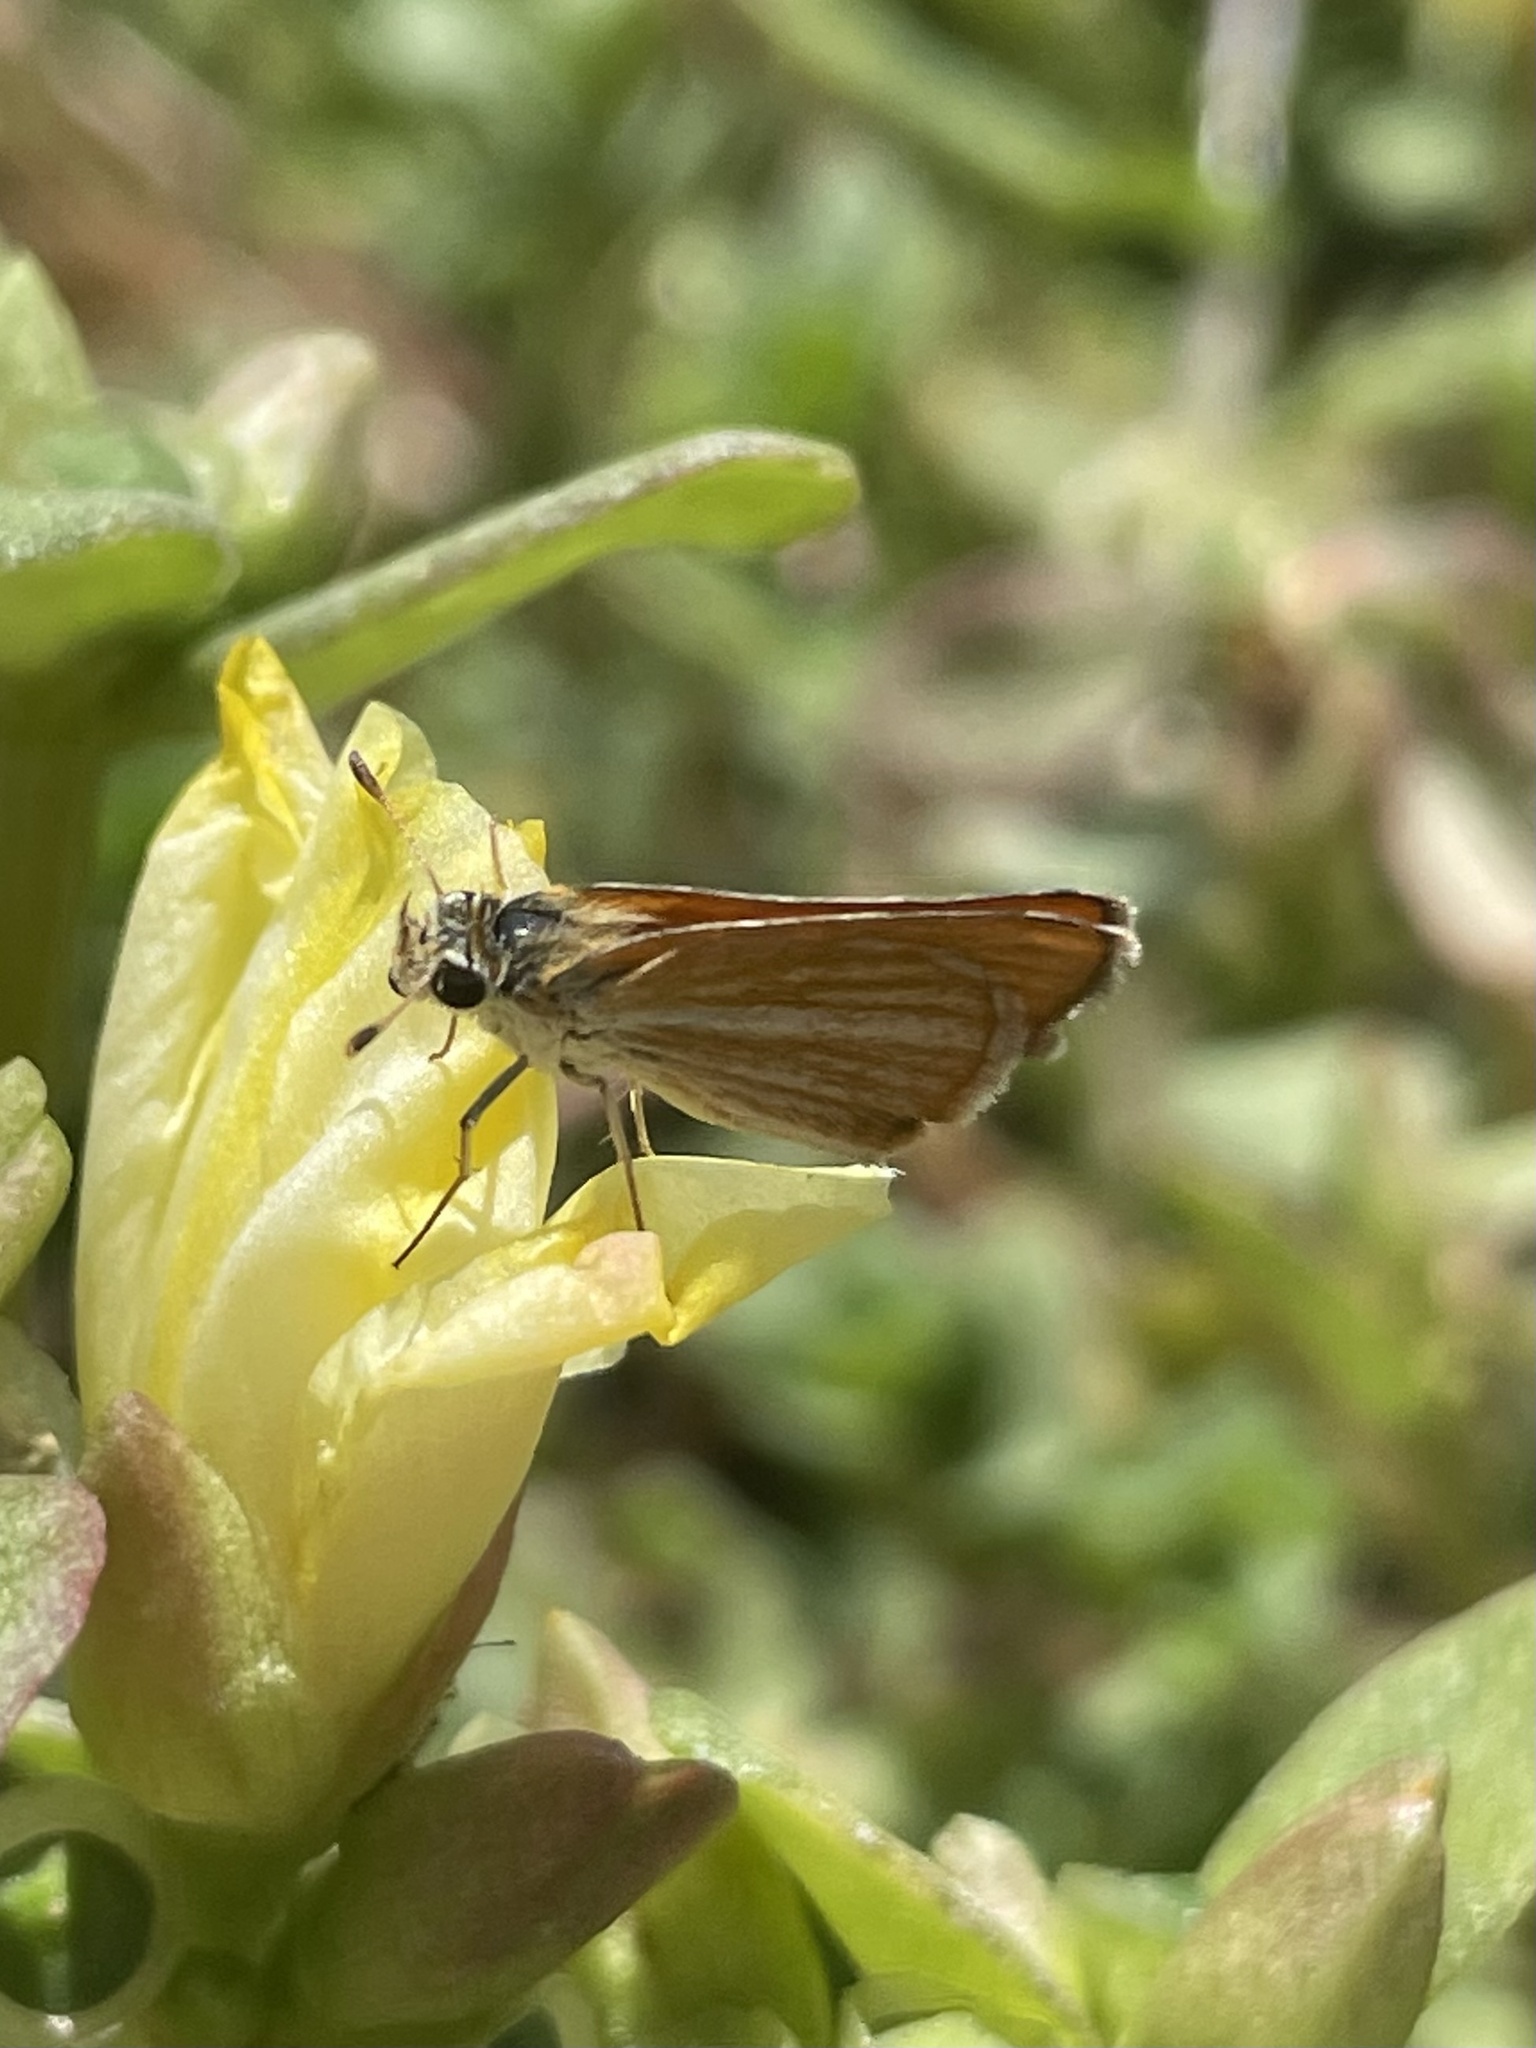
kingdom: Animalia
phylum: Arthropoda
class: Insecta
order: Lepidoptera
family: Hesperiidae
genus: Copaeodes
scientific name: Copaeodes minima
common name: Southern skipperling
